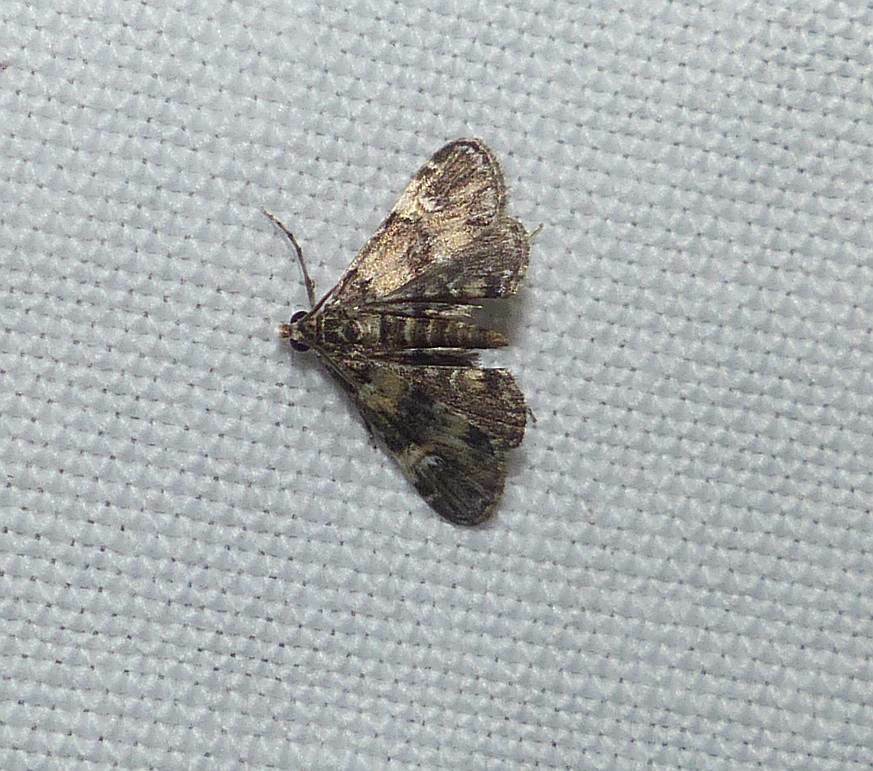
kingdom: Animalia
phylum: Arthropoda
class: Insecta
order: Lepidoptera
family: Crambidae
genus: Elophila
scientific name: Elophila obliteralis
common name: Waterlily leafcutter moth
